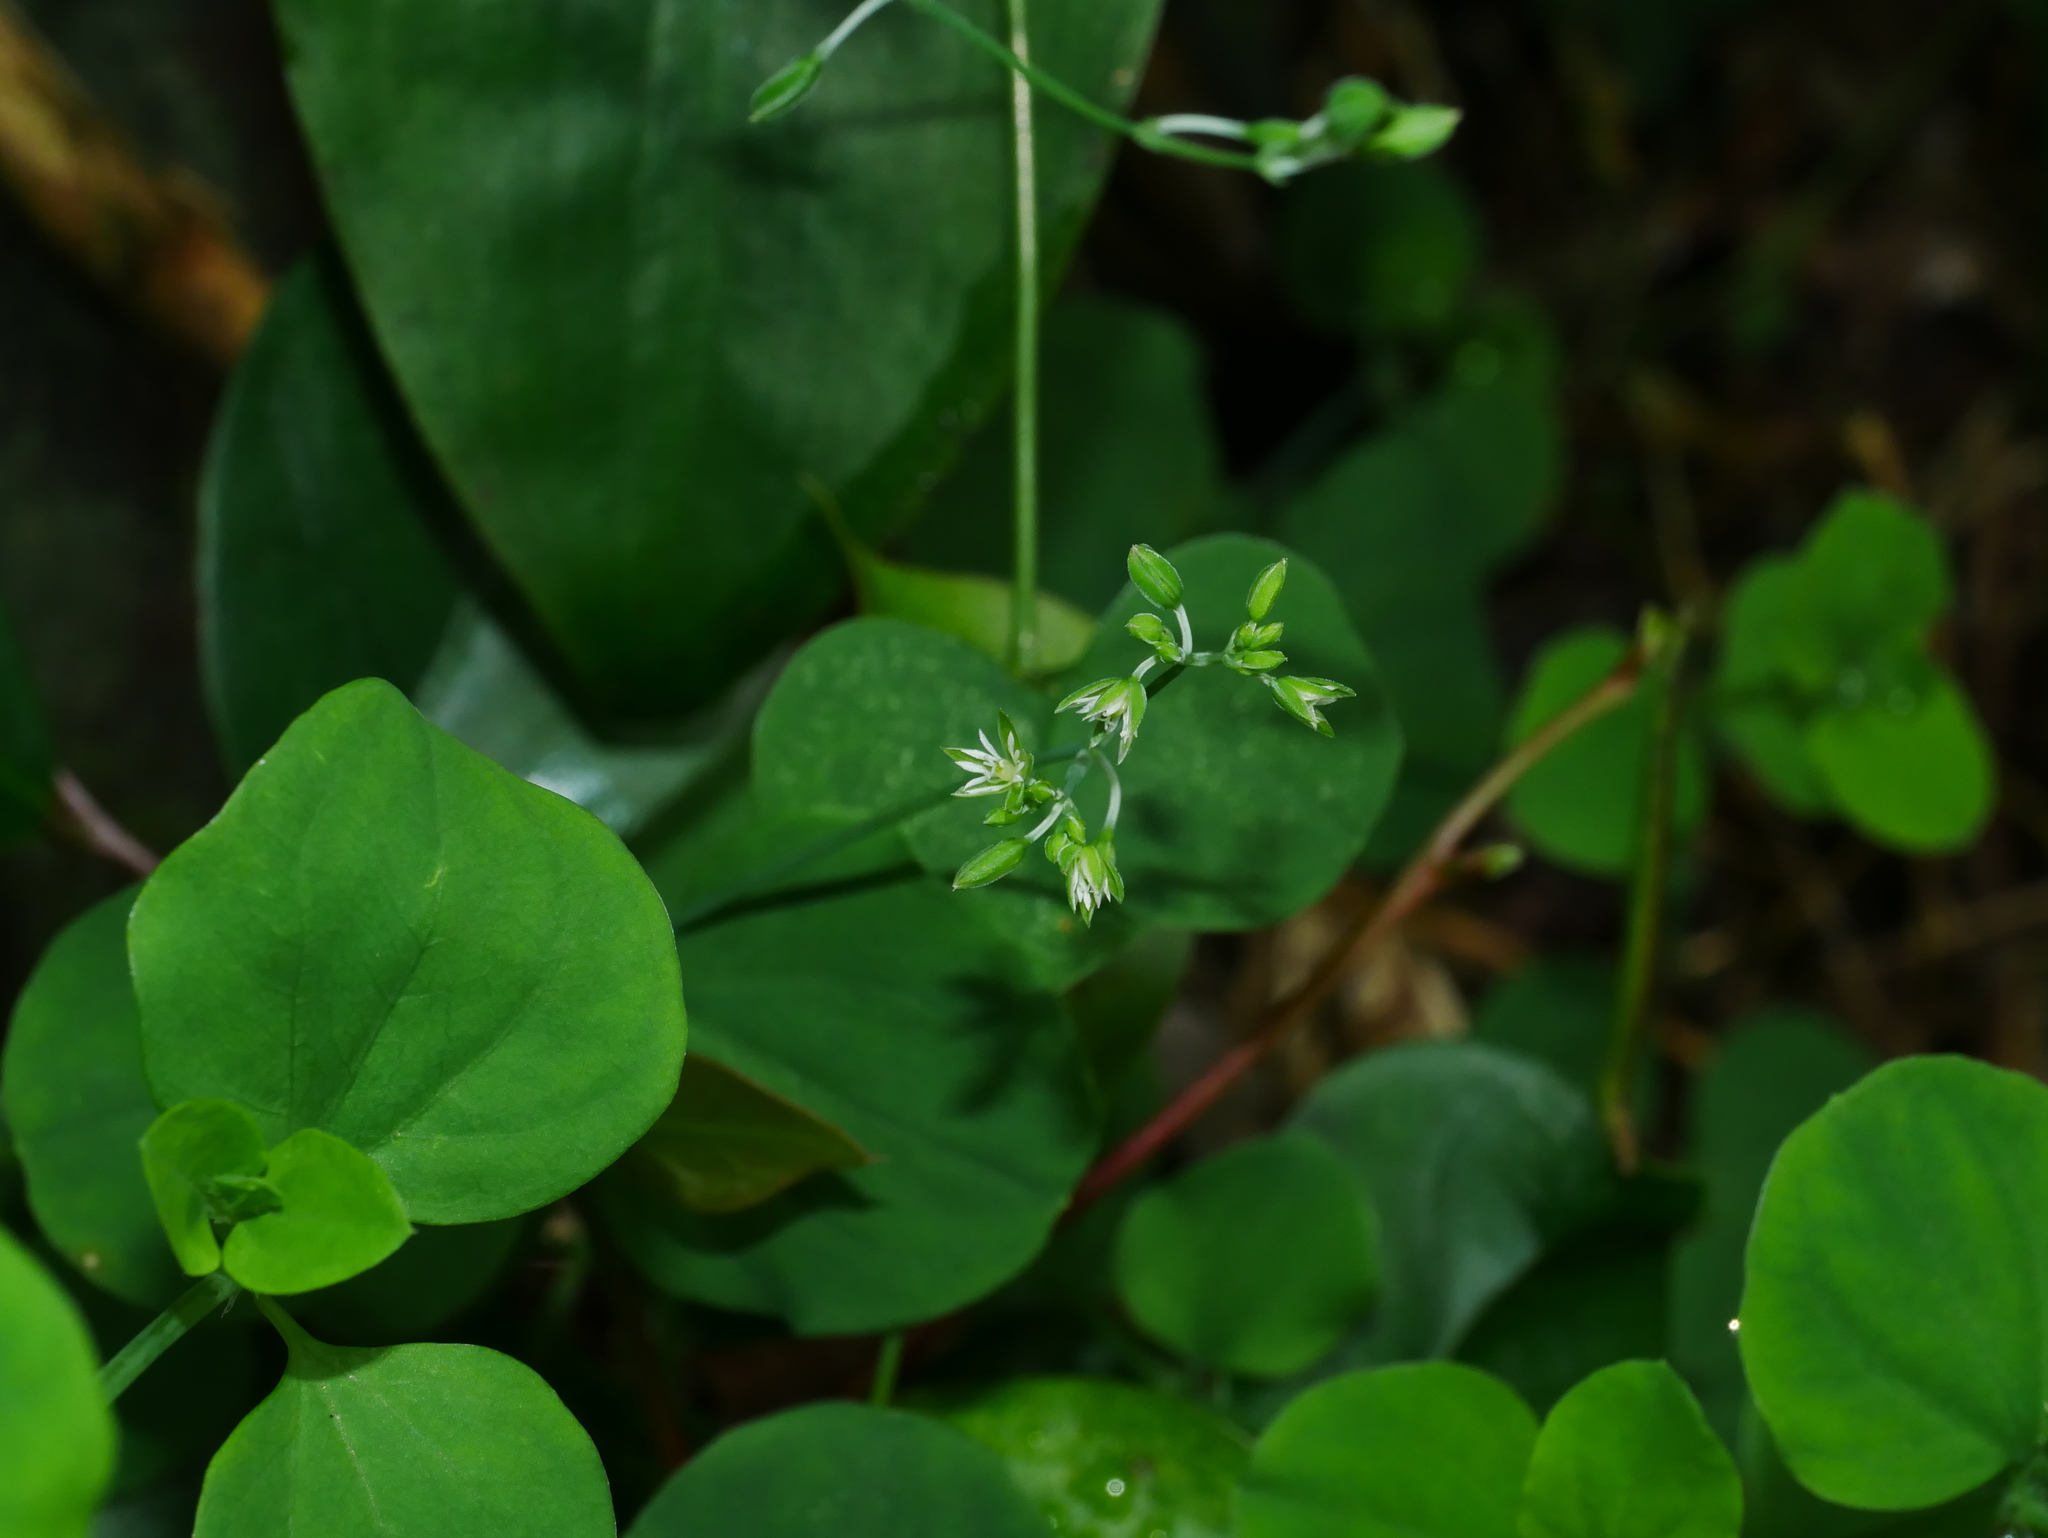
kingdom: Plantae
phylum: Tracheophyta
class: Magnoliopsida
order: Caryophyllales
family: Caryophyllaceae
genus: Drymaria
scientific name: Drymaria cordata
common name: Whitesnow
